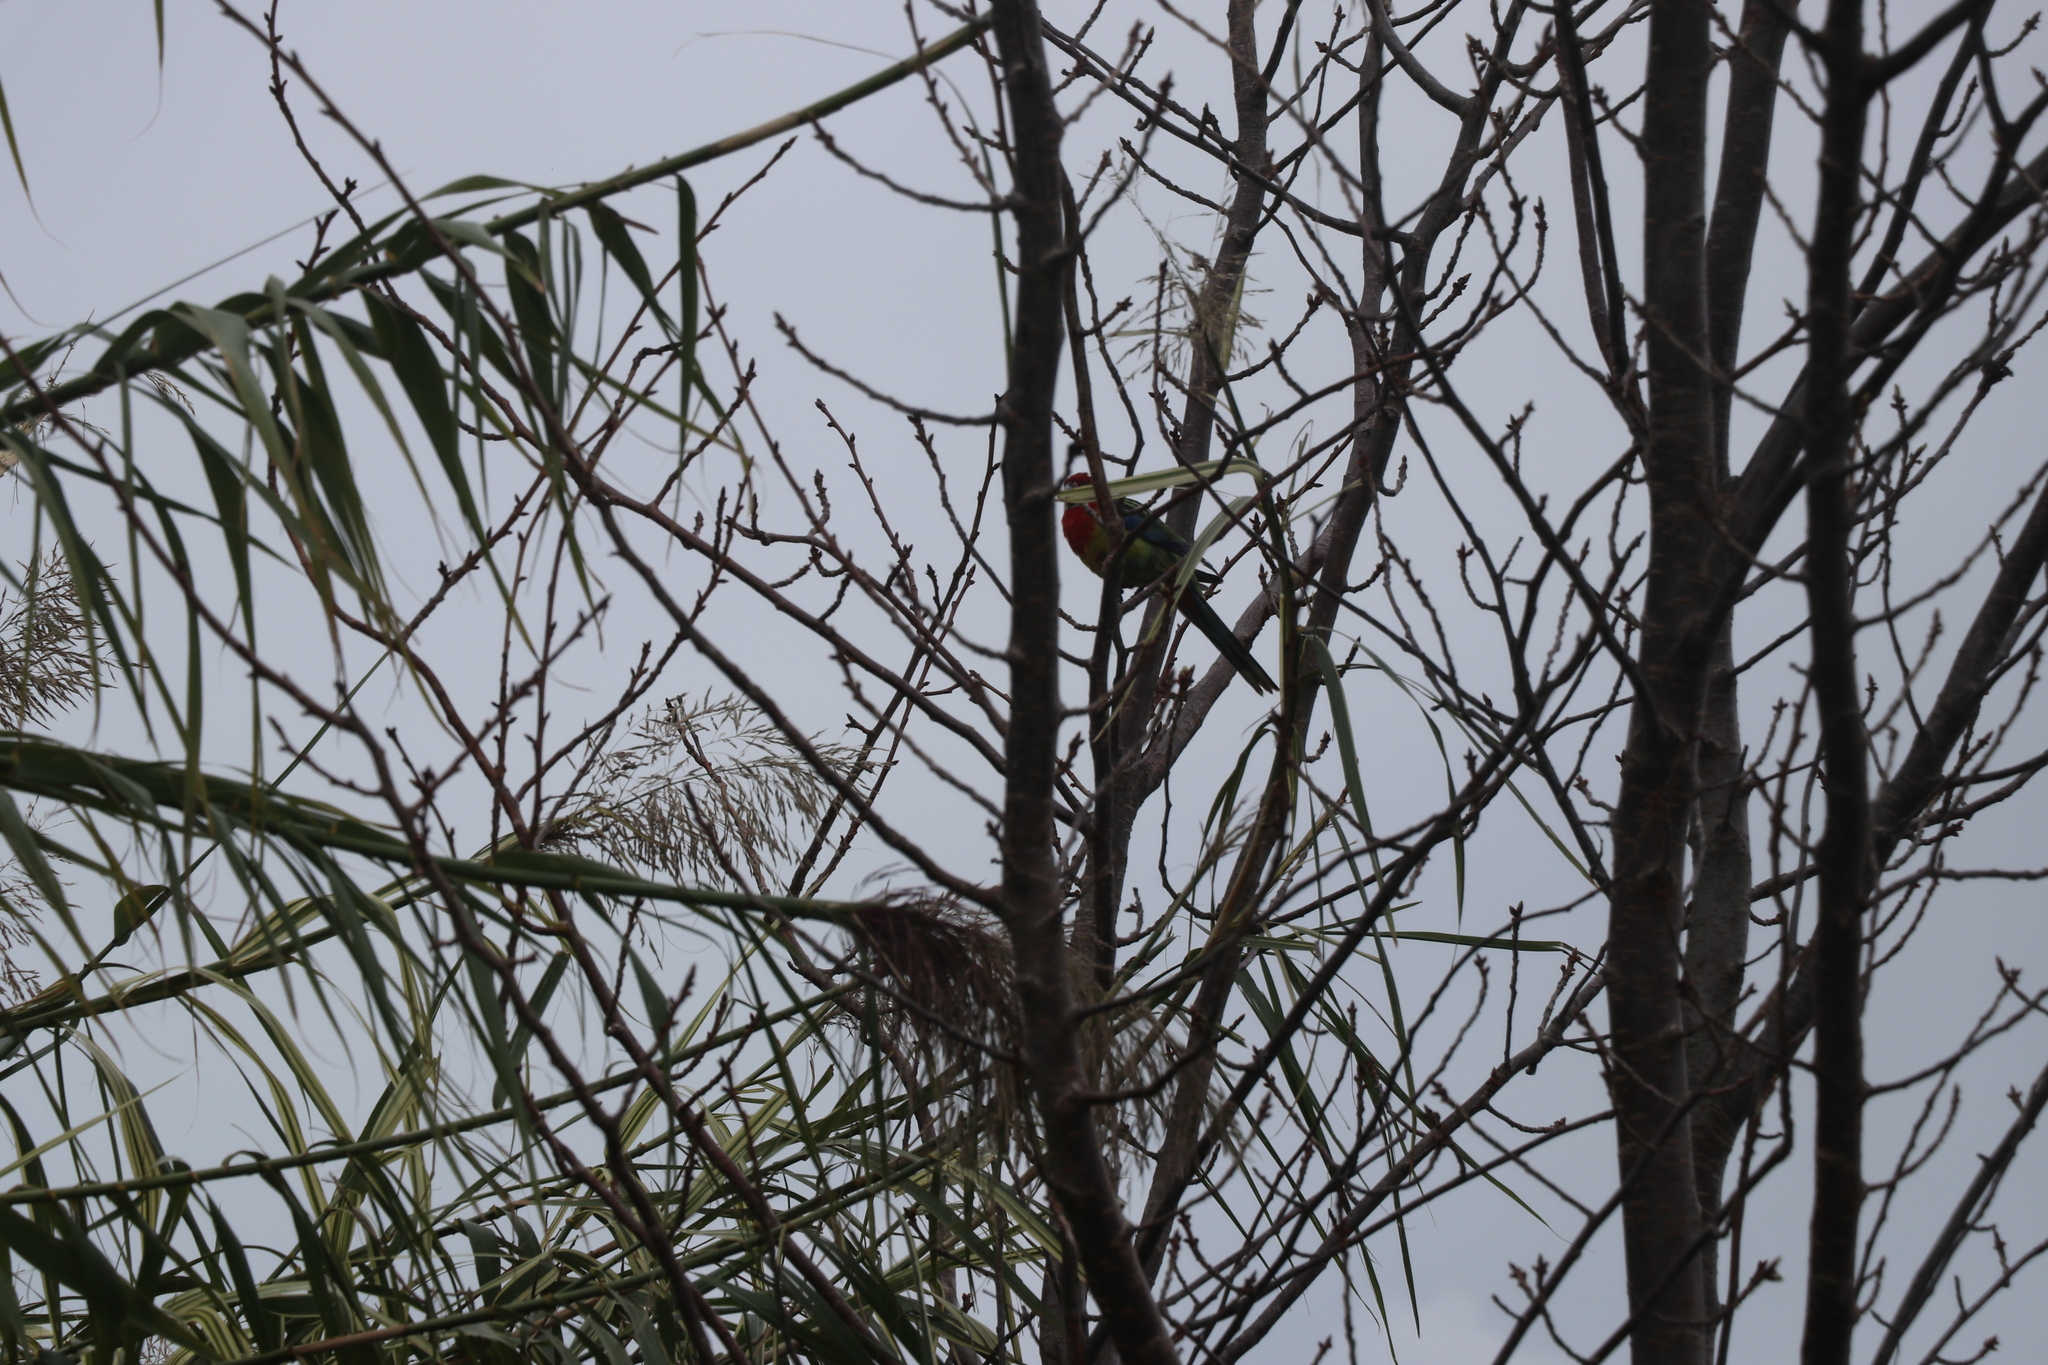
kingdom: Animalia
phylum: Chordata
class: Aves
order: Psittaciformes
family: Psittacidae
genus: Platycercus
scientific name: Platycercus eximius
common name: Eastern rosella
